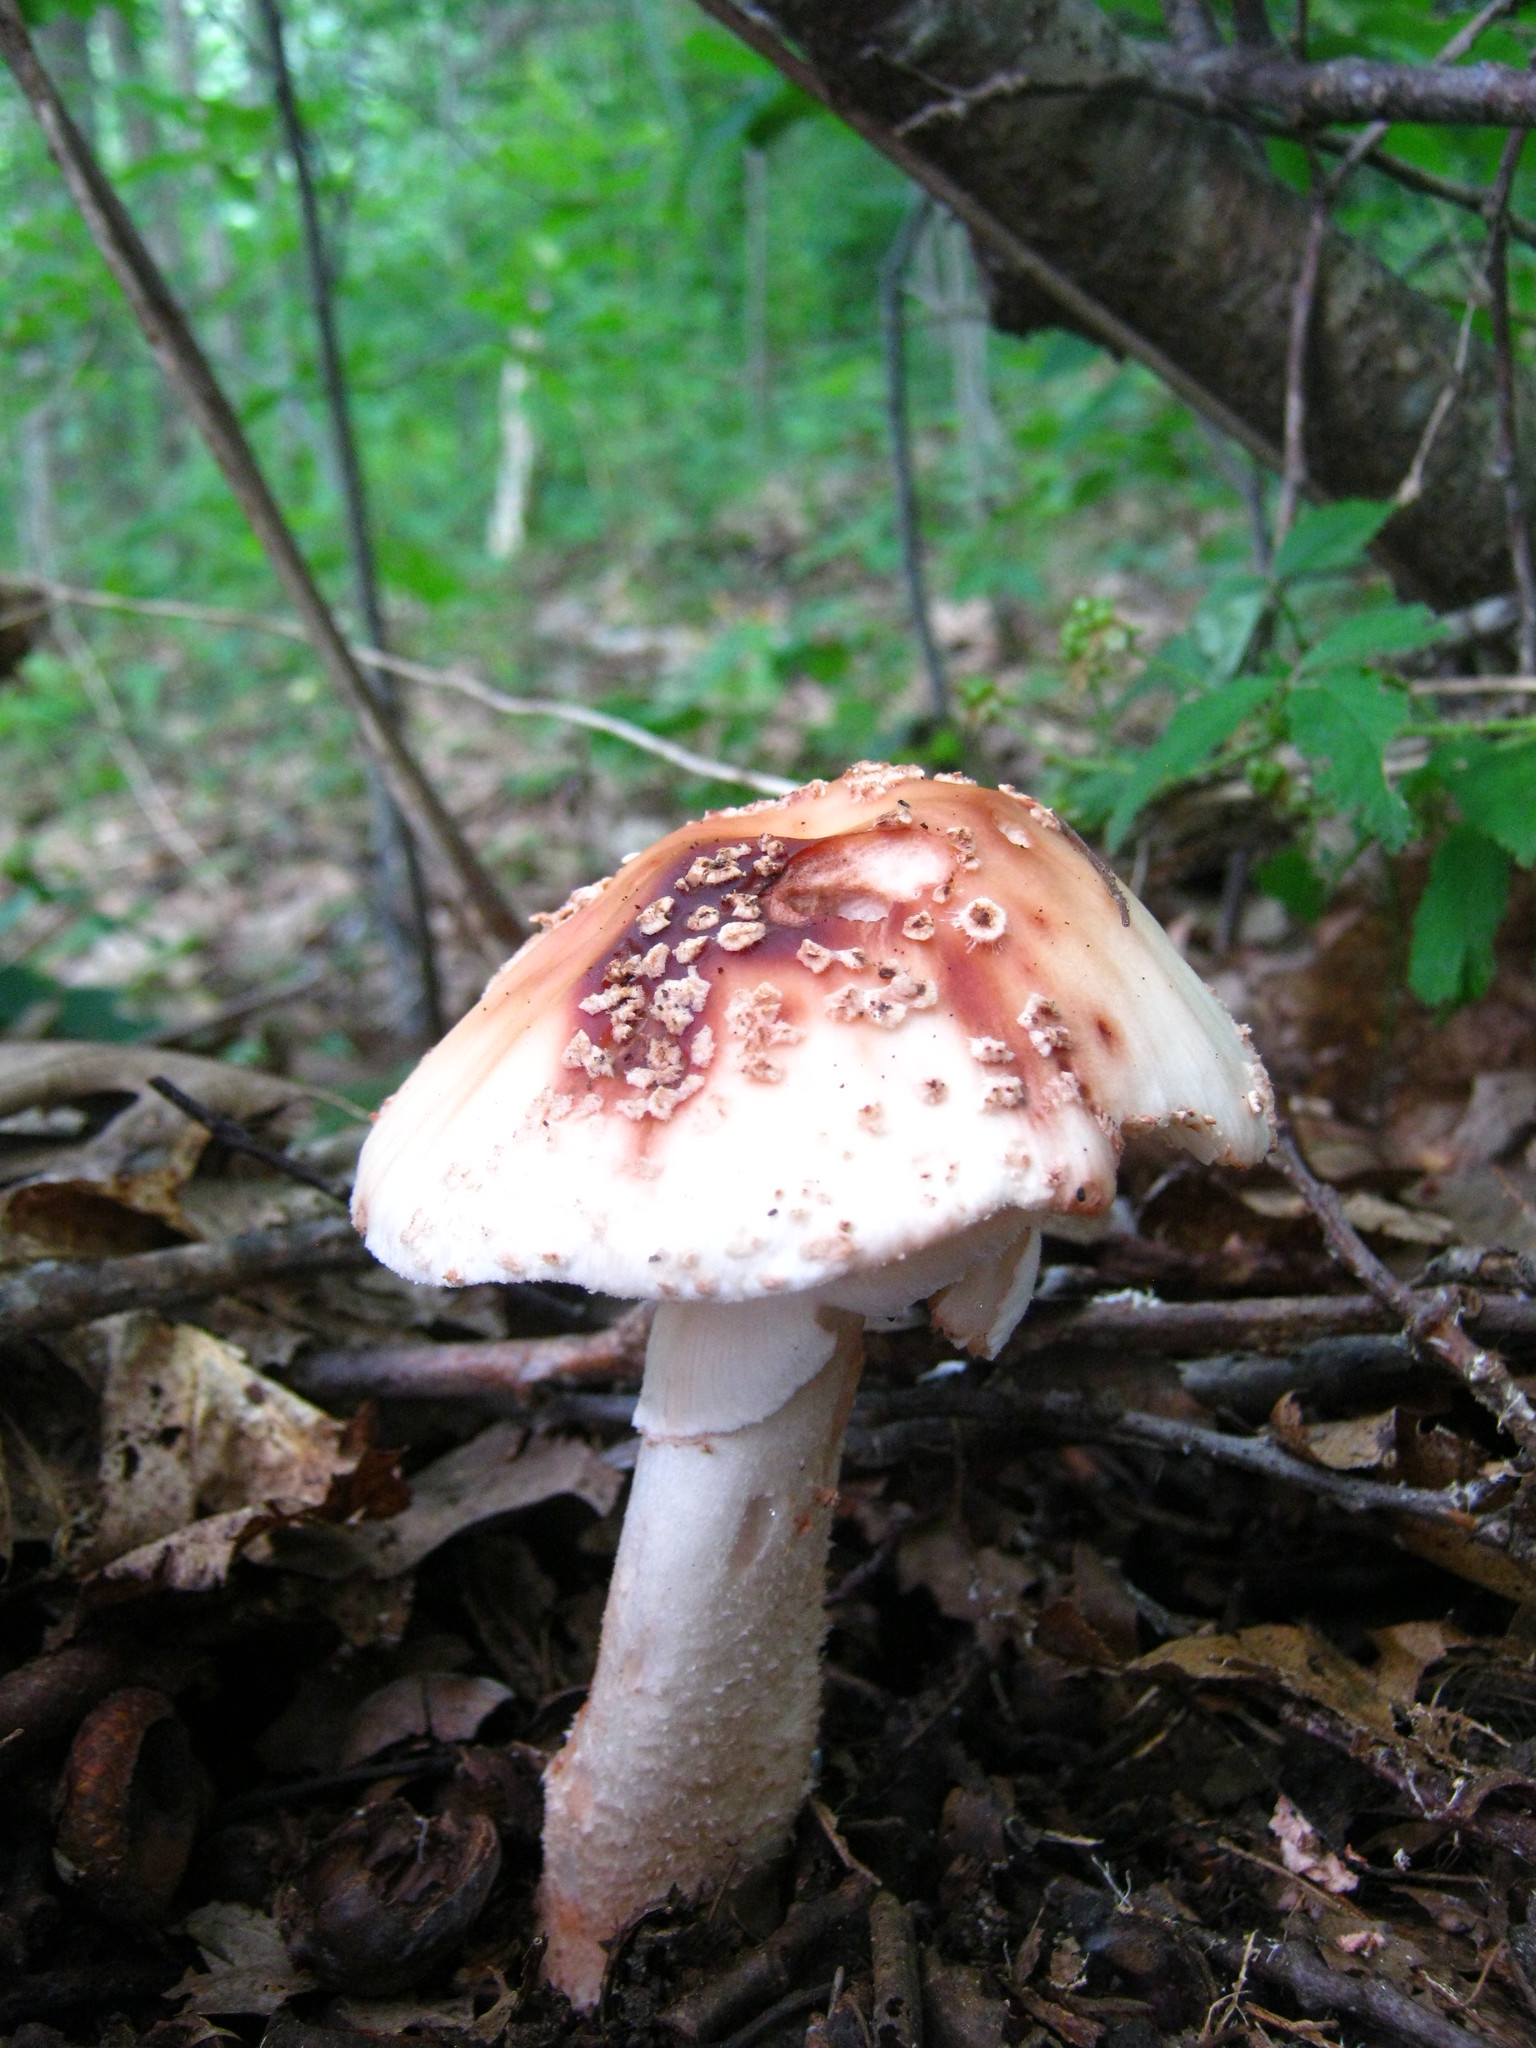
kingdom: Fungi
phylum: Basidiomycota
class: Agaricomycetes
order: Agaricales
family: Amanitaceae
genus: Amanita
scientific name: Amanita rubescens
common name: Blusher
